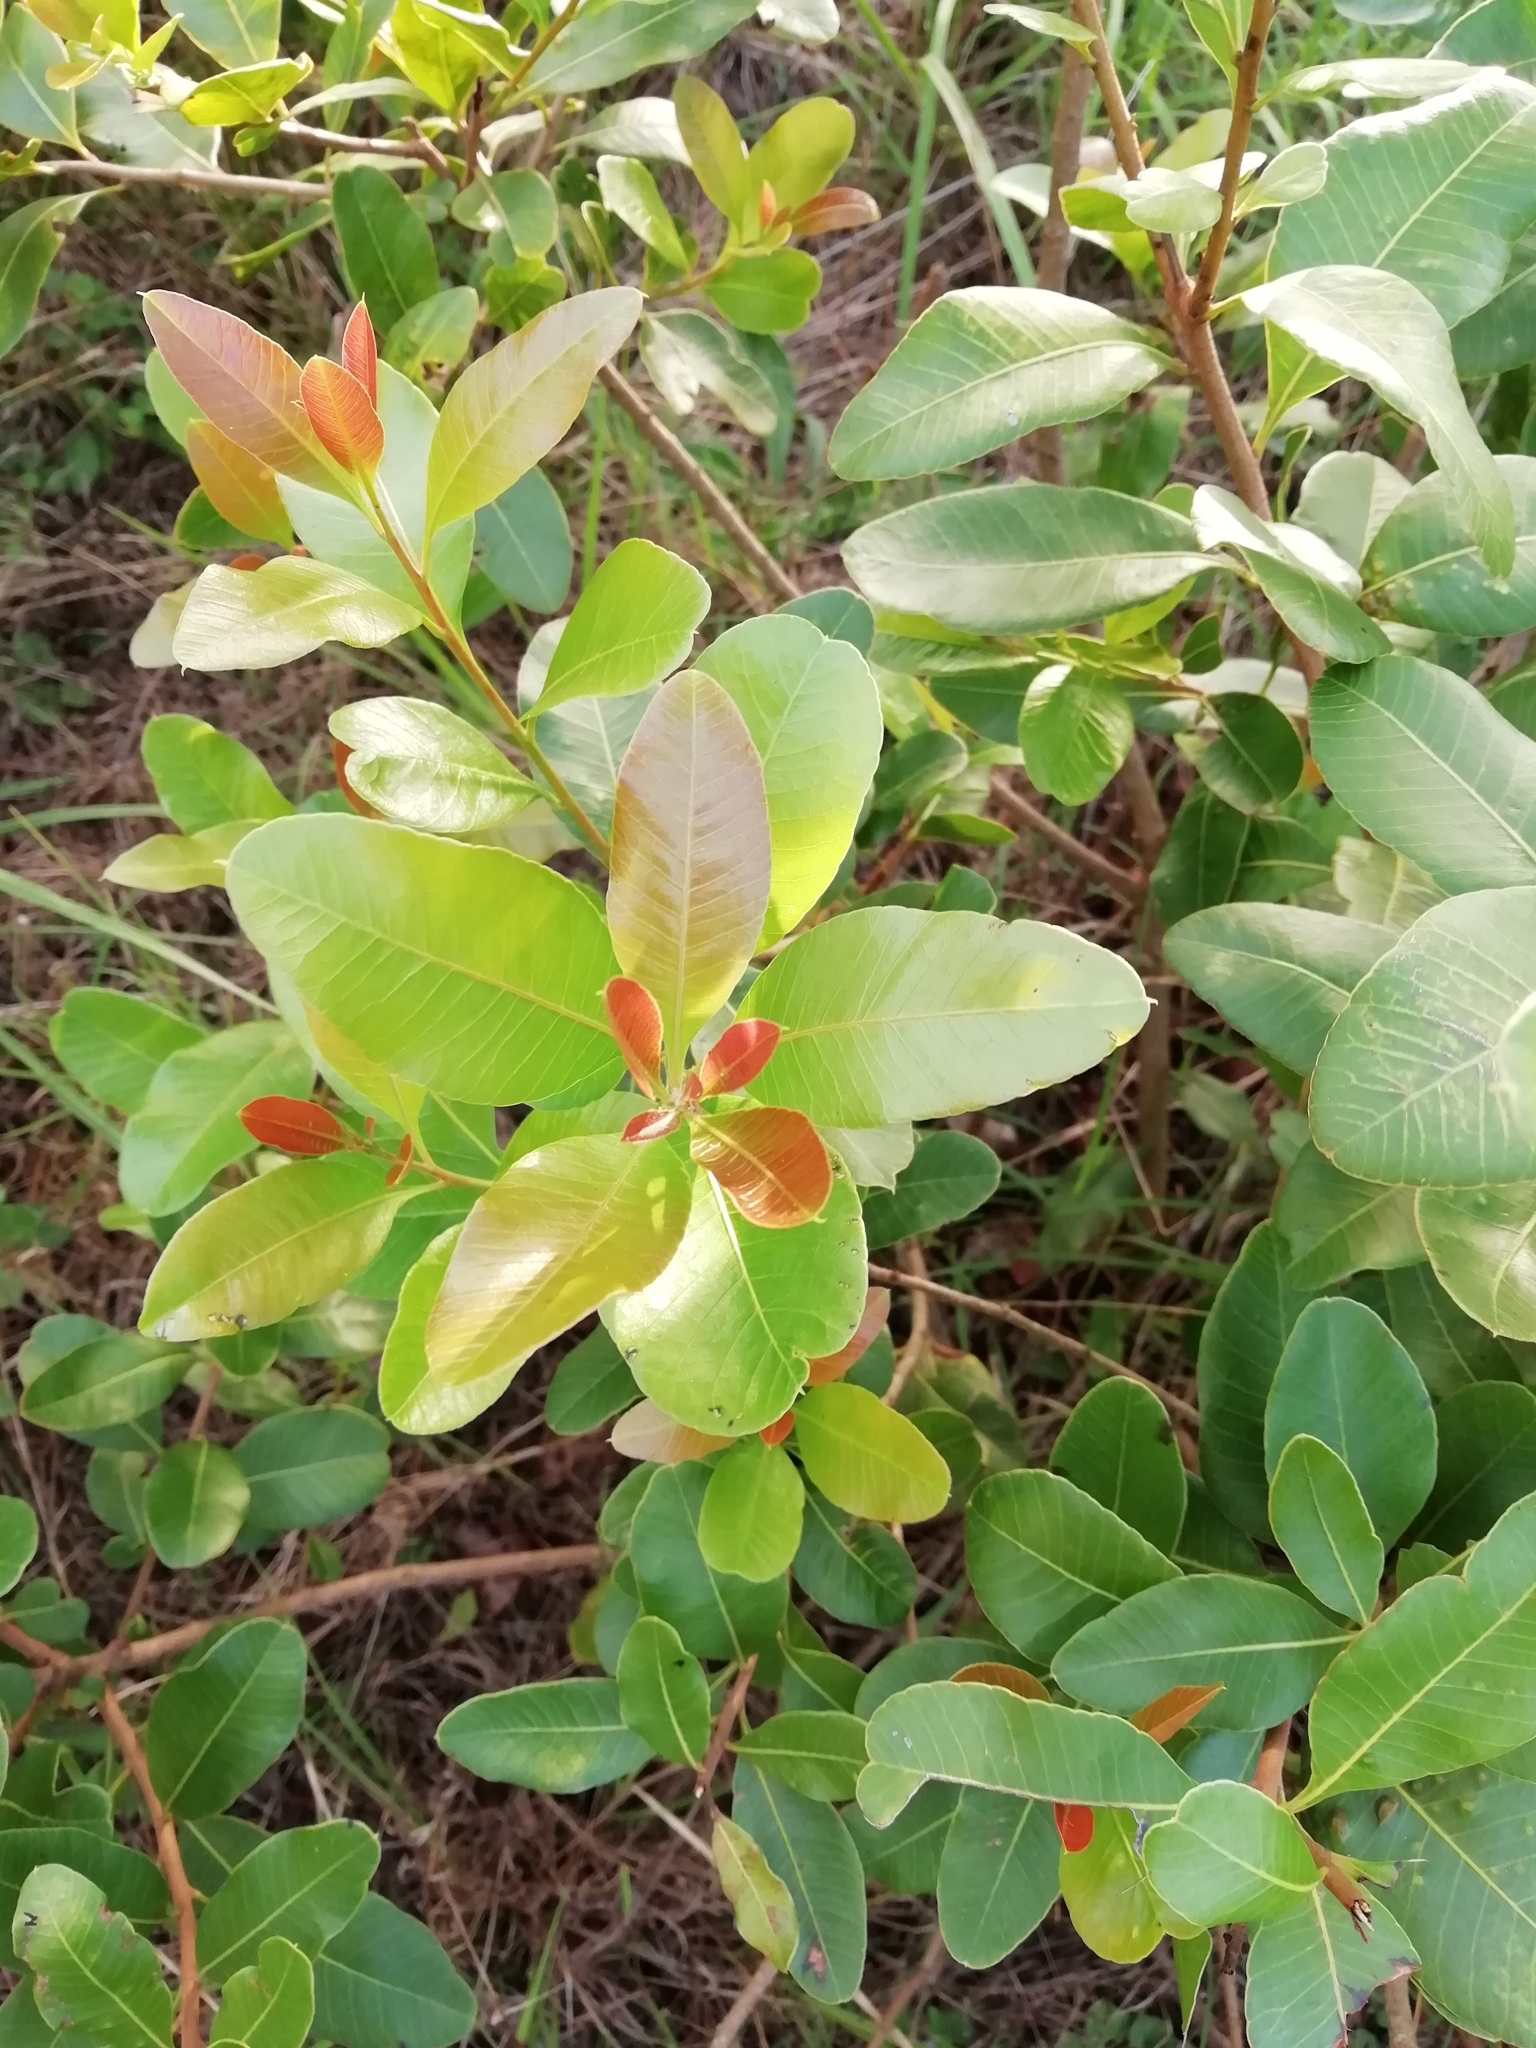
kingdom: Plantae
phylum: Tracheophyta
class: Magnoliopsida
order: Sapindales
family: Anacardiaceae
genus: Lithraea
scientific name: Lithraea brasiliensis
